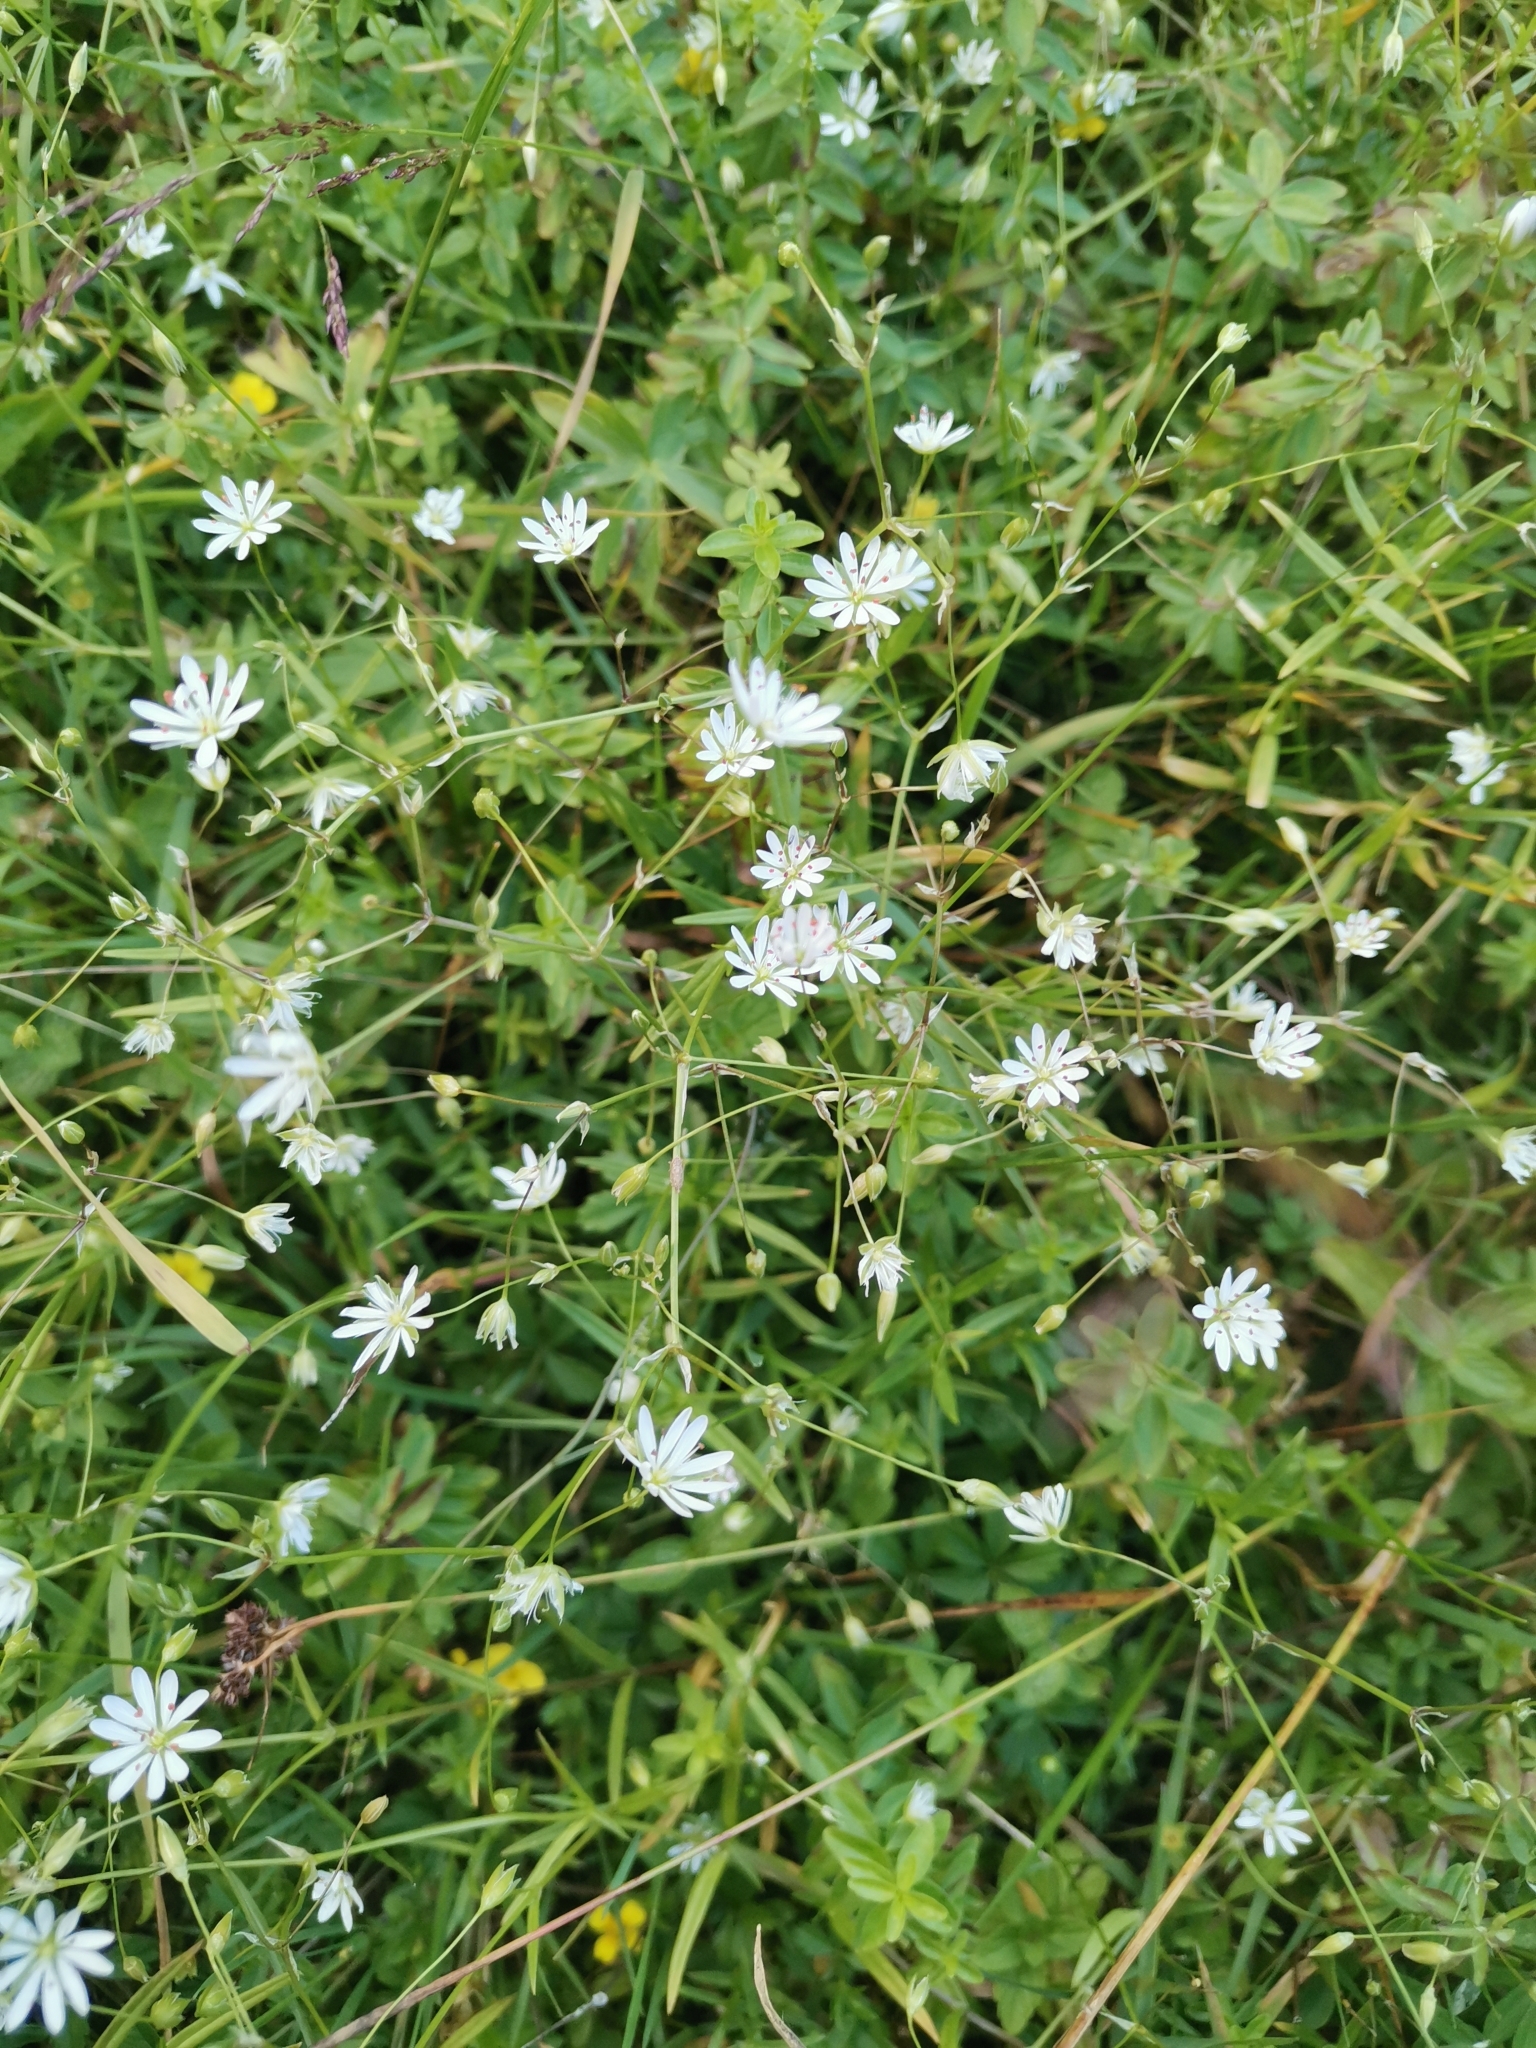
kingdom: Plantae
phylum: Tracheophyta
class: Magnoliopsida
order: Caryophyllales
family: Caryophyllaceae
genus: Stellaria
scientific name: Stellaria graminea
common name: Grass-like starwort
